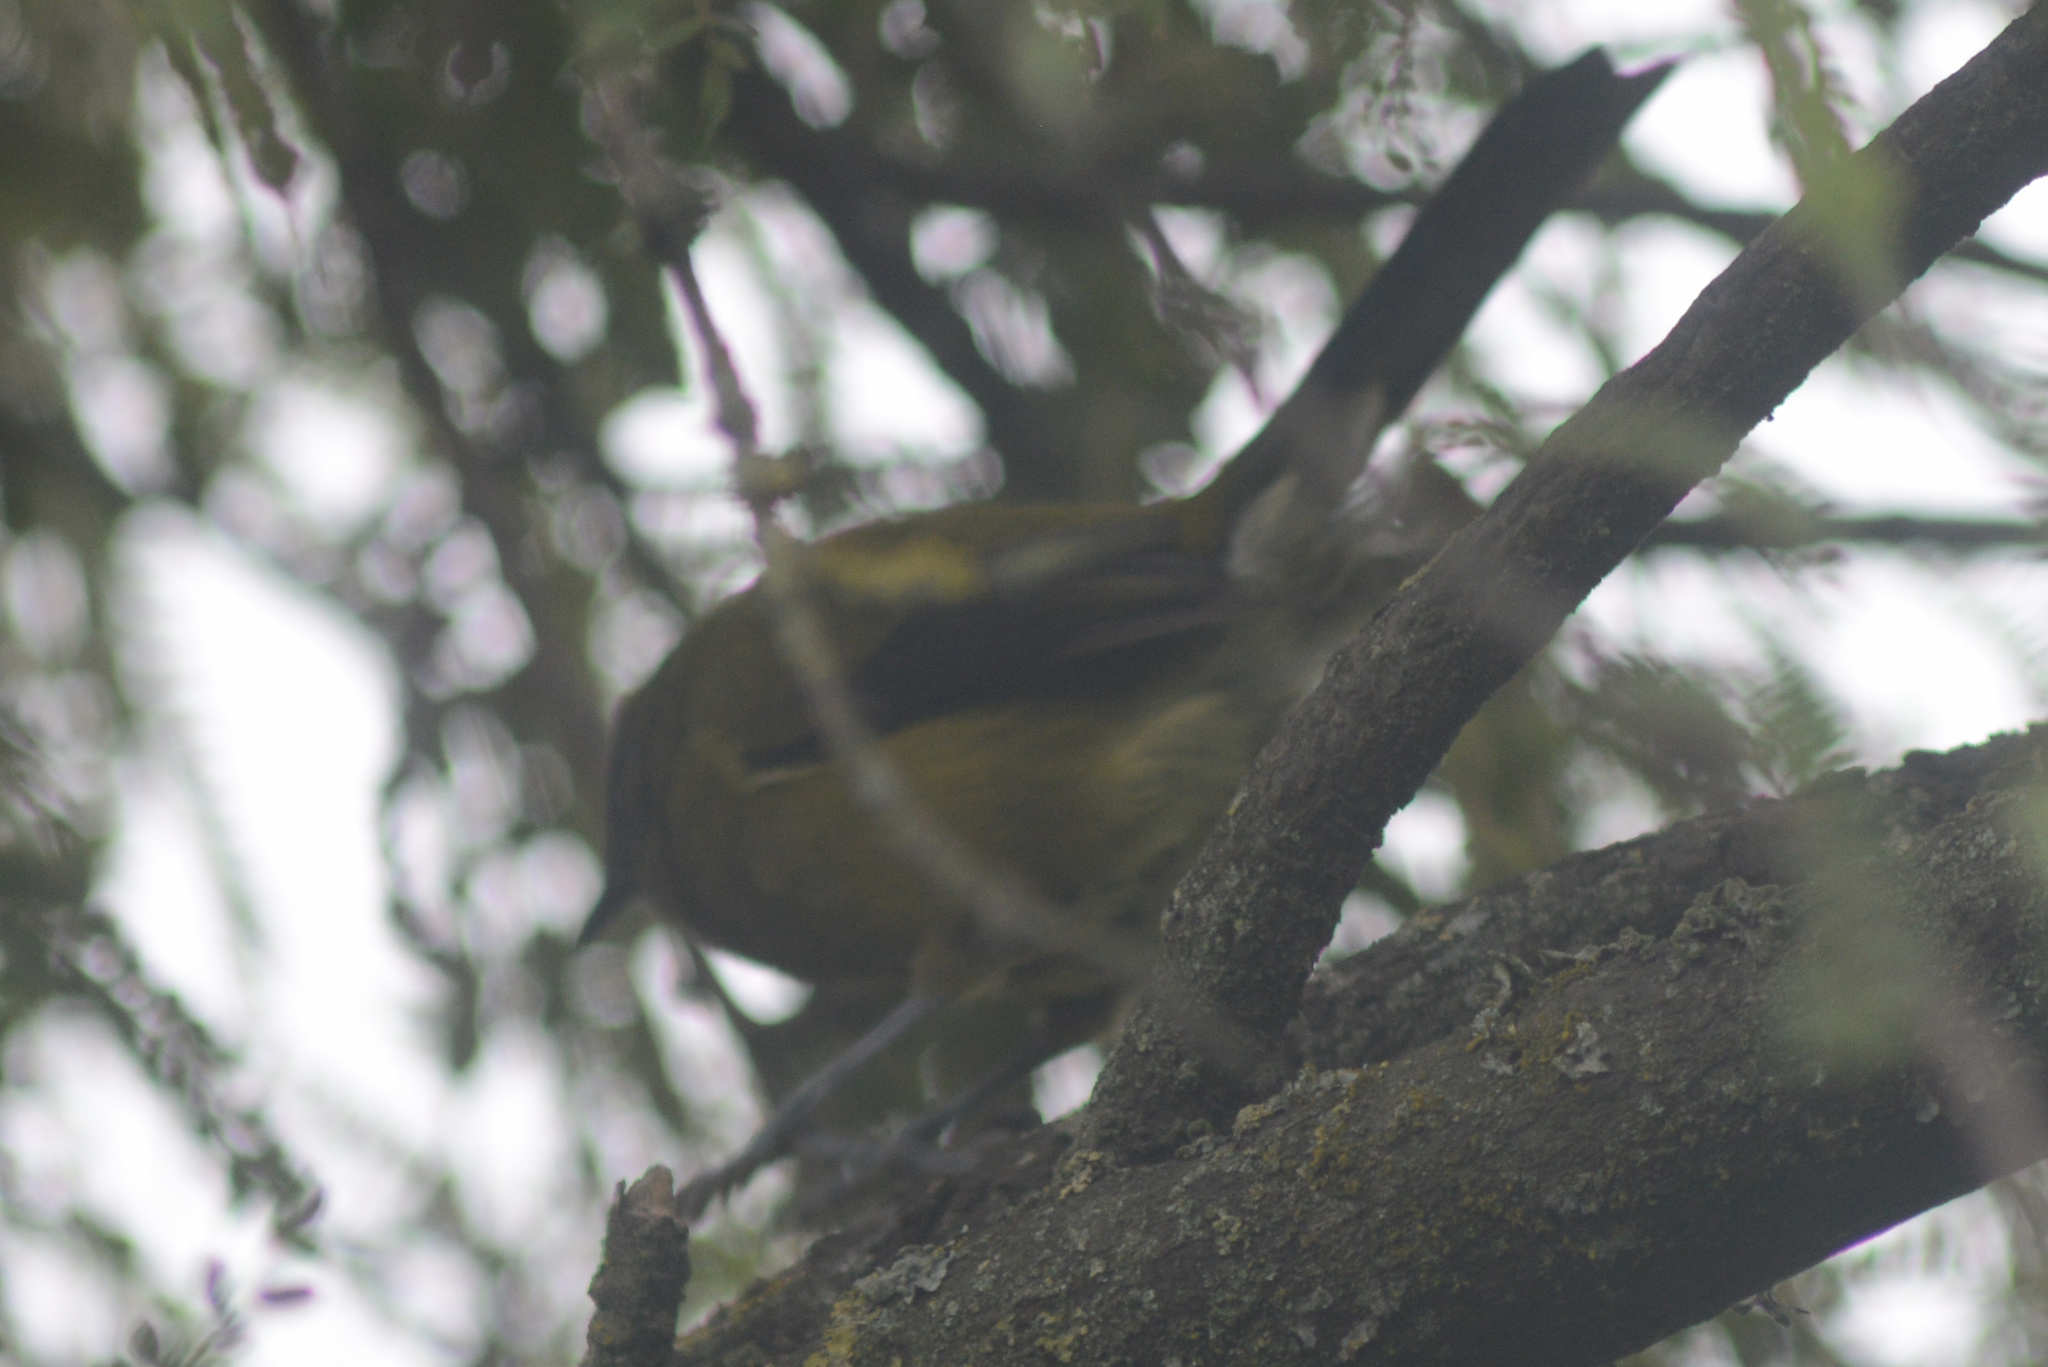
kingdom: Animalia
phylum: Chordata
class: Aves
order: Passeriformes
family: Meliphagidae
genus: Anthornis
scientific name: Anthornis melanura
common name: New zealand bellbird
